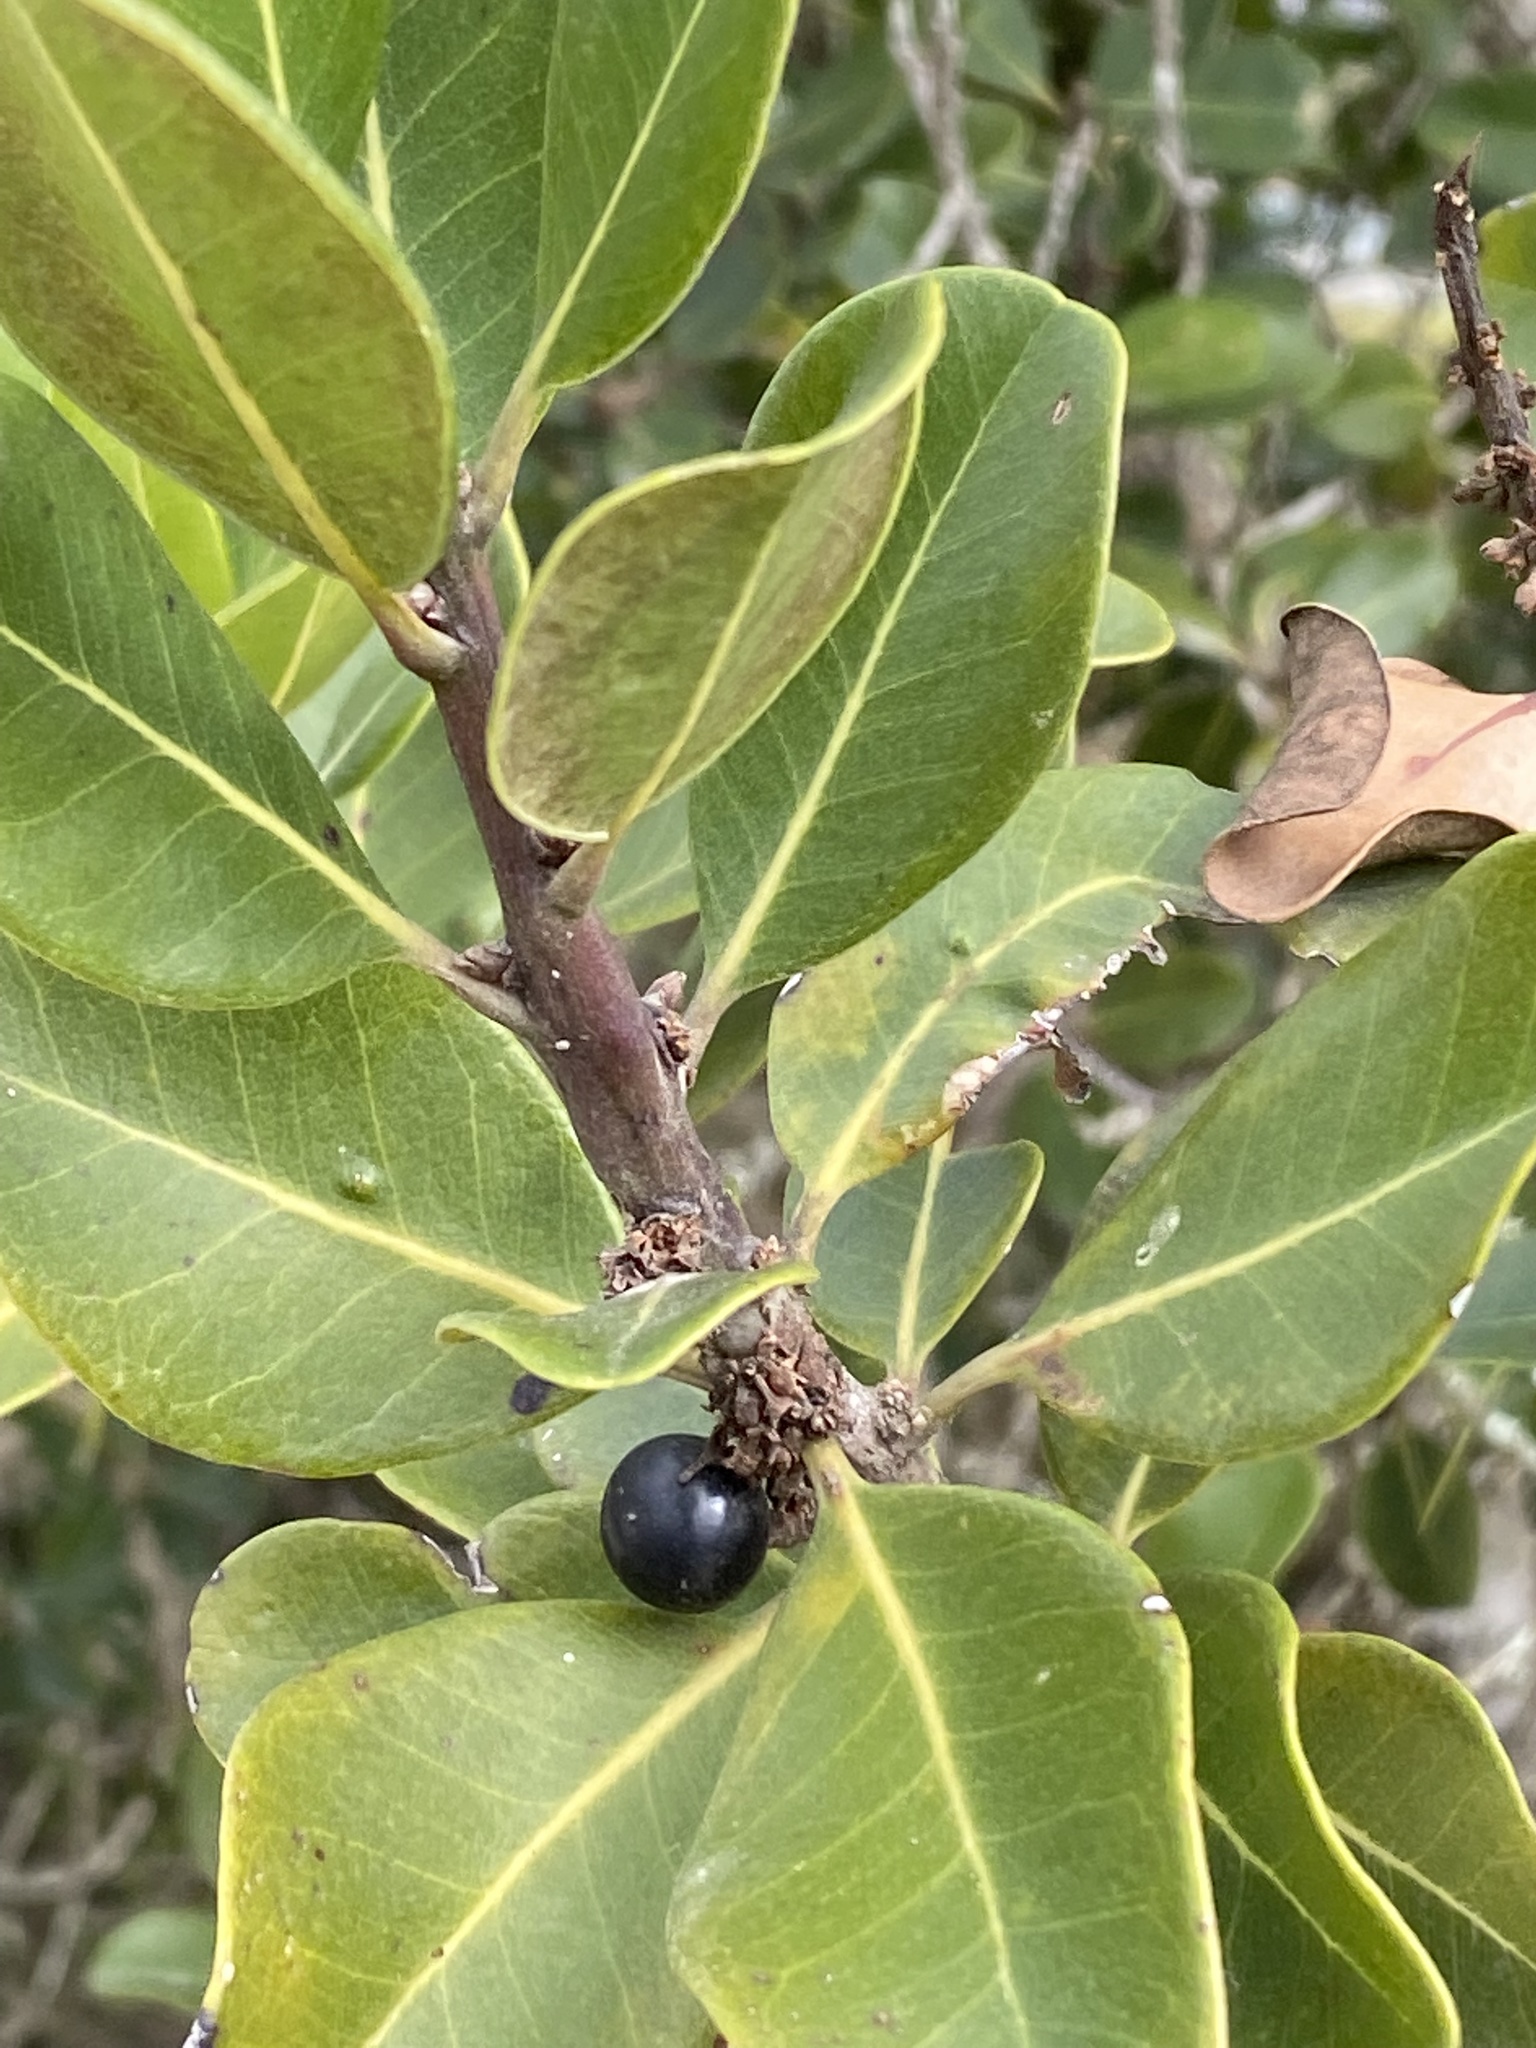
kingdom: Plantae
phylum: Tracheophyta
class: Magnoliopsida
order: Ericales
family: Sapotaceae
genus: Sideroxylon
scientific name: Sideroxylon inerme
